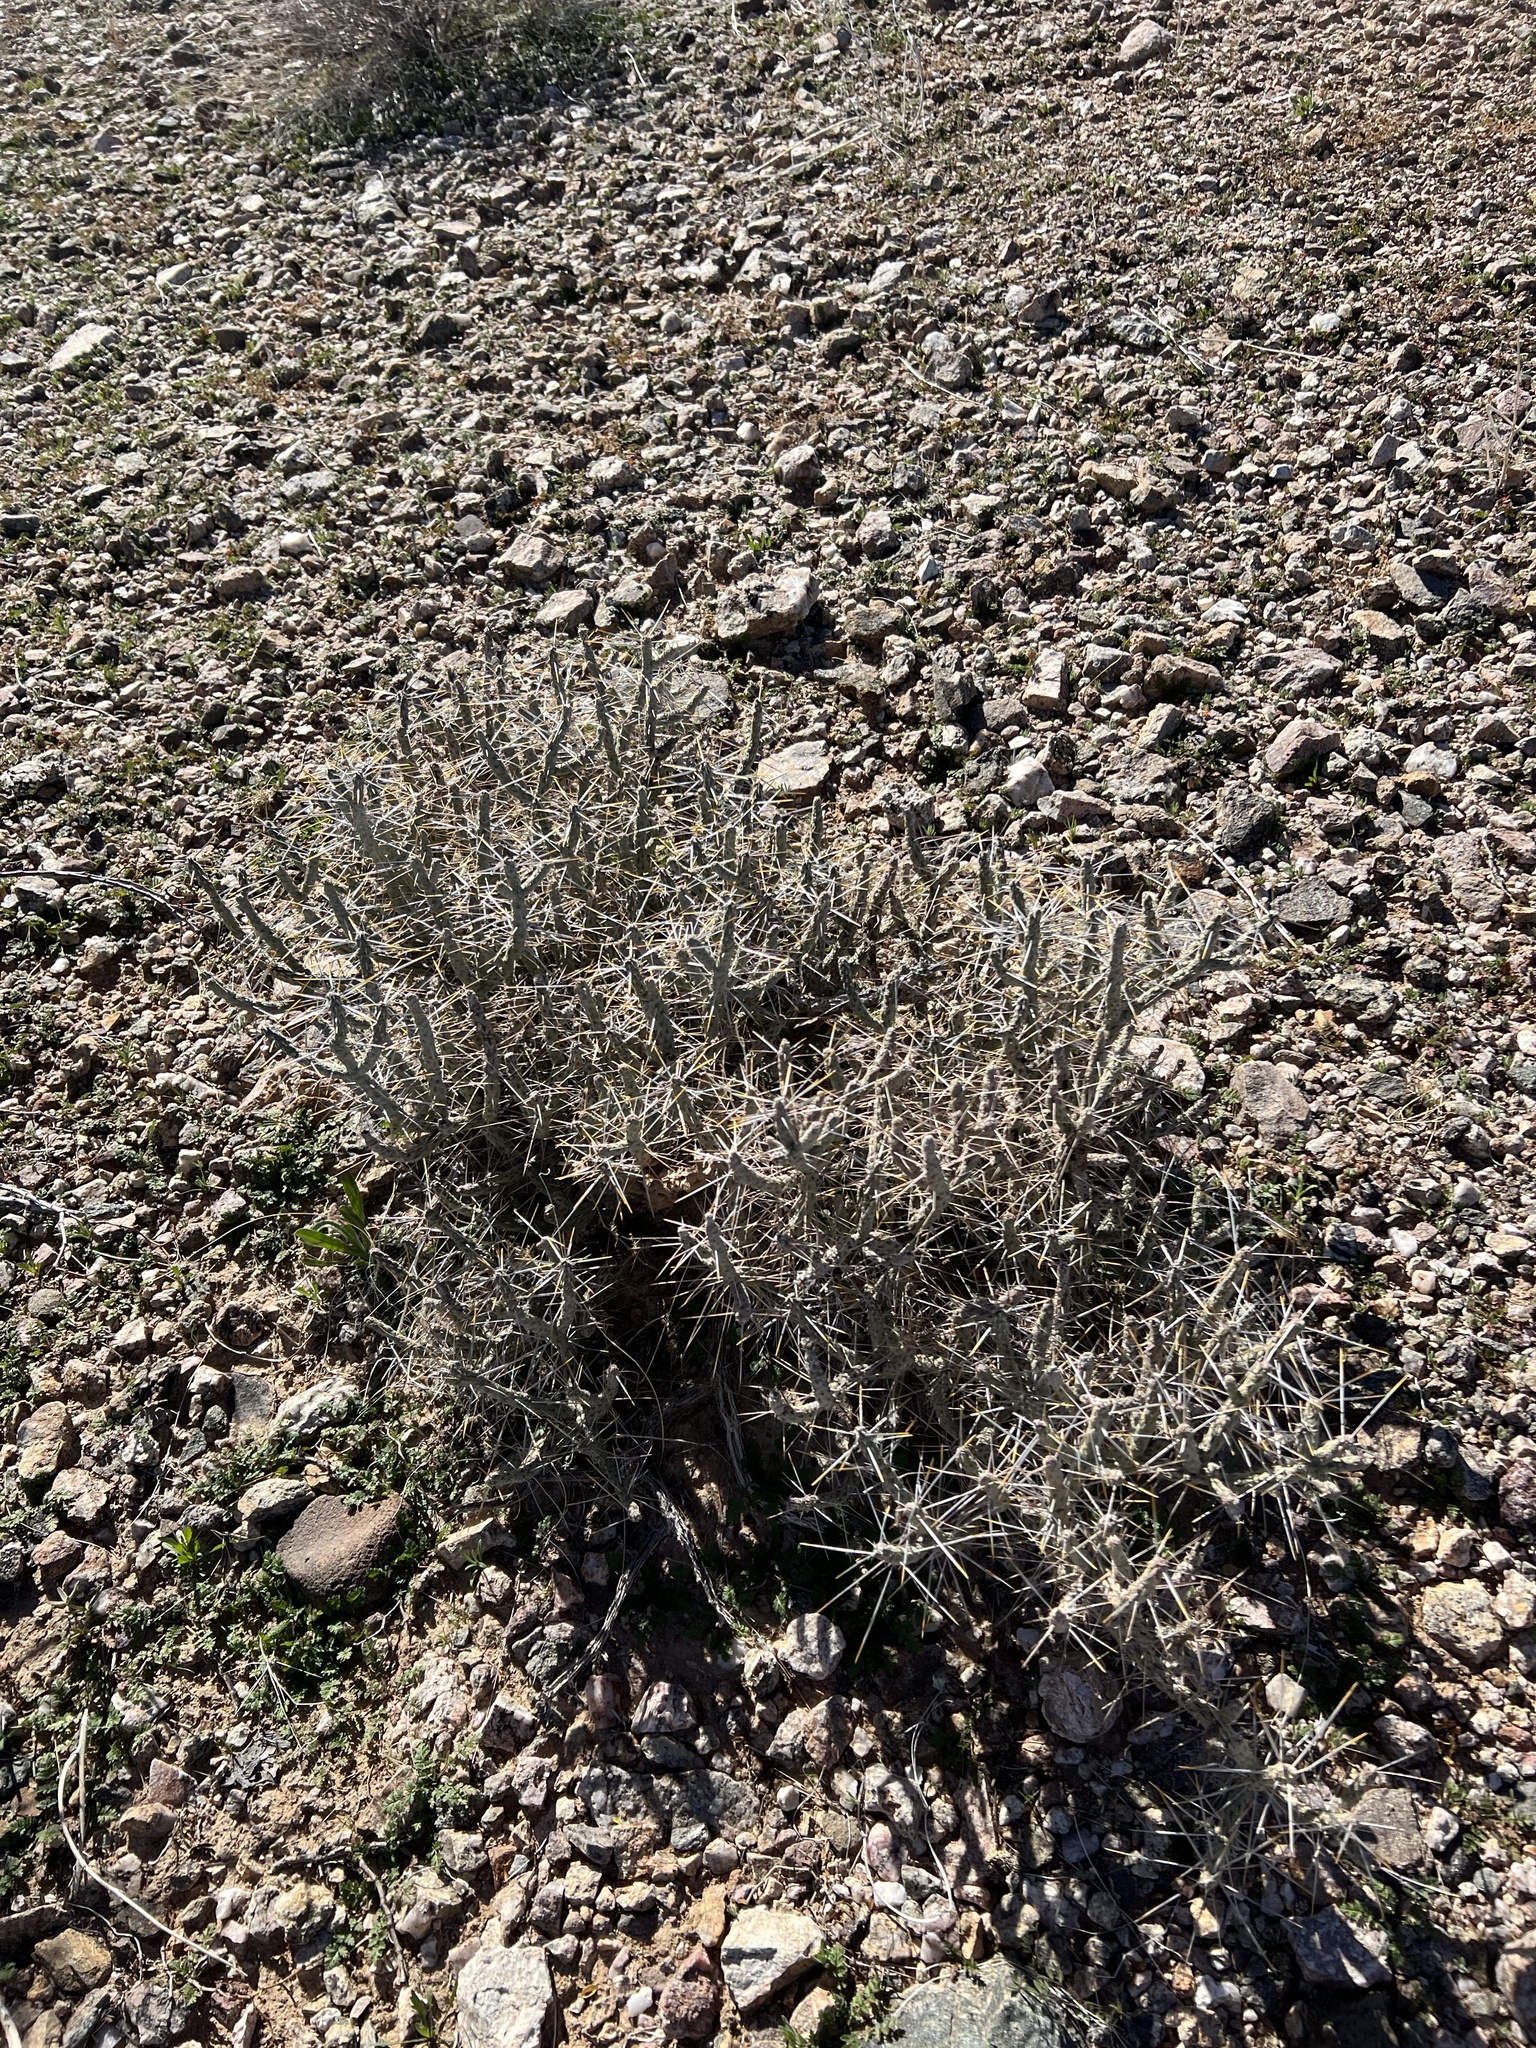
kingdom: Plantae
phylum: Tracheophyta
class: Magnoliopsida
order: Caryophyllales
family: Cactaceae
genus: Cylindropuntia
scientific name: Cylindropuntia ramosissima
